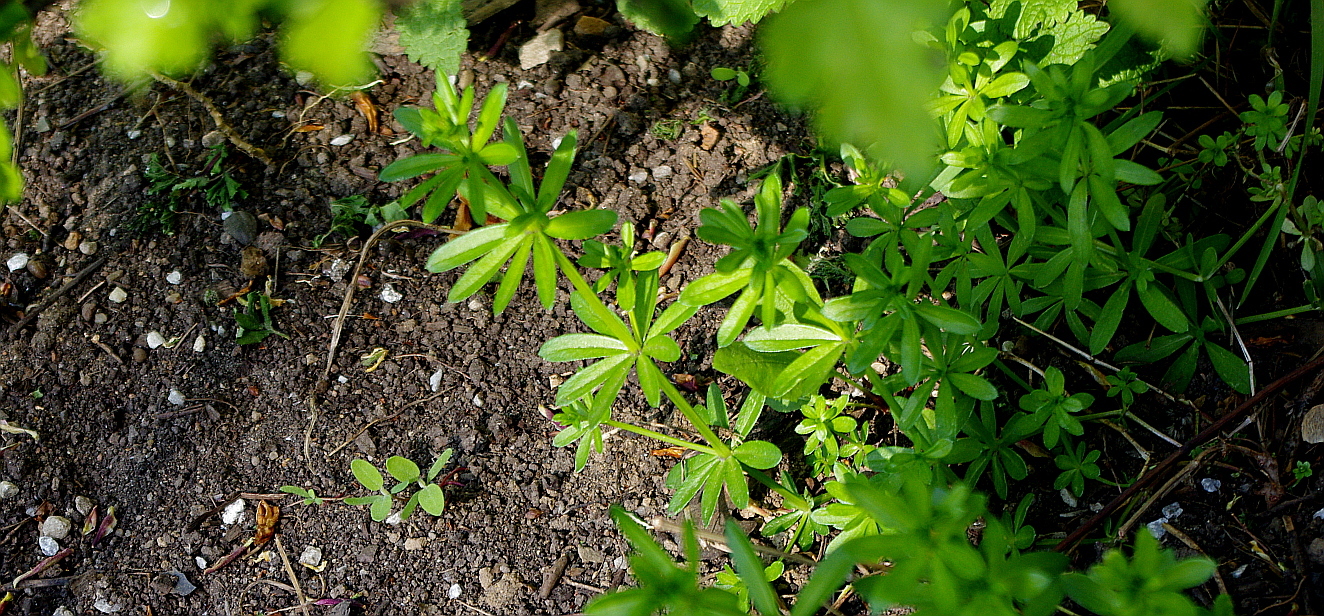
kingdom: Plantae
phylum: Tracheophyta
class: Magnoliopsida
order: Gentianales
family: Rubiaceae
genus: Galium
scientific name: Galium mollugo
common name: Hedge bedstraw
